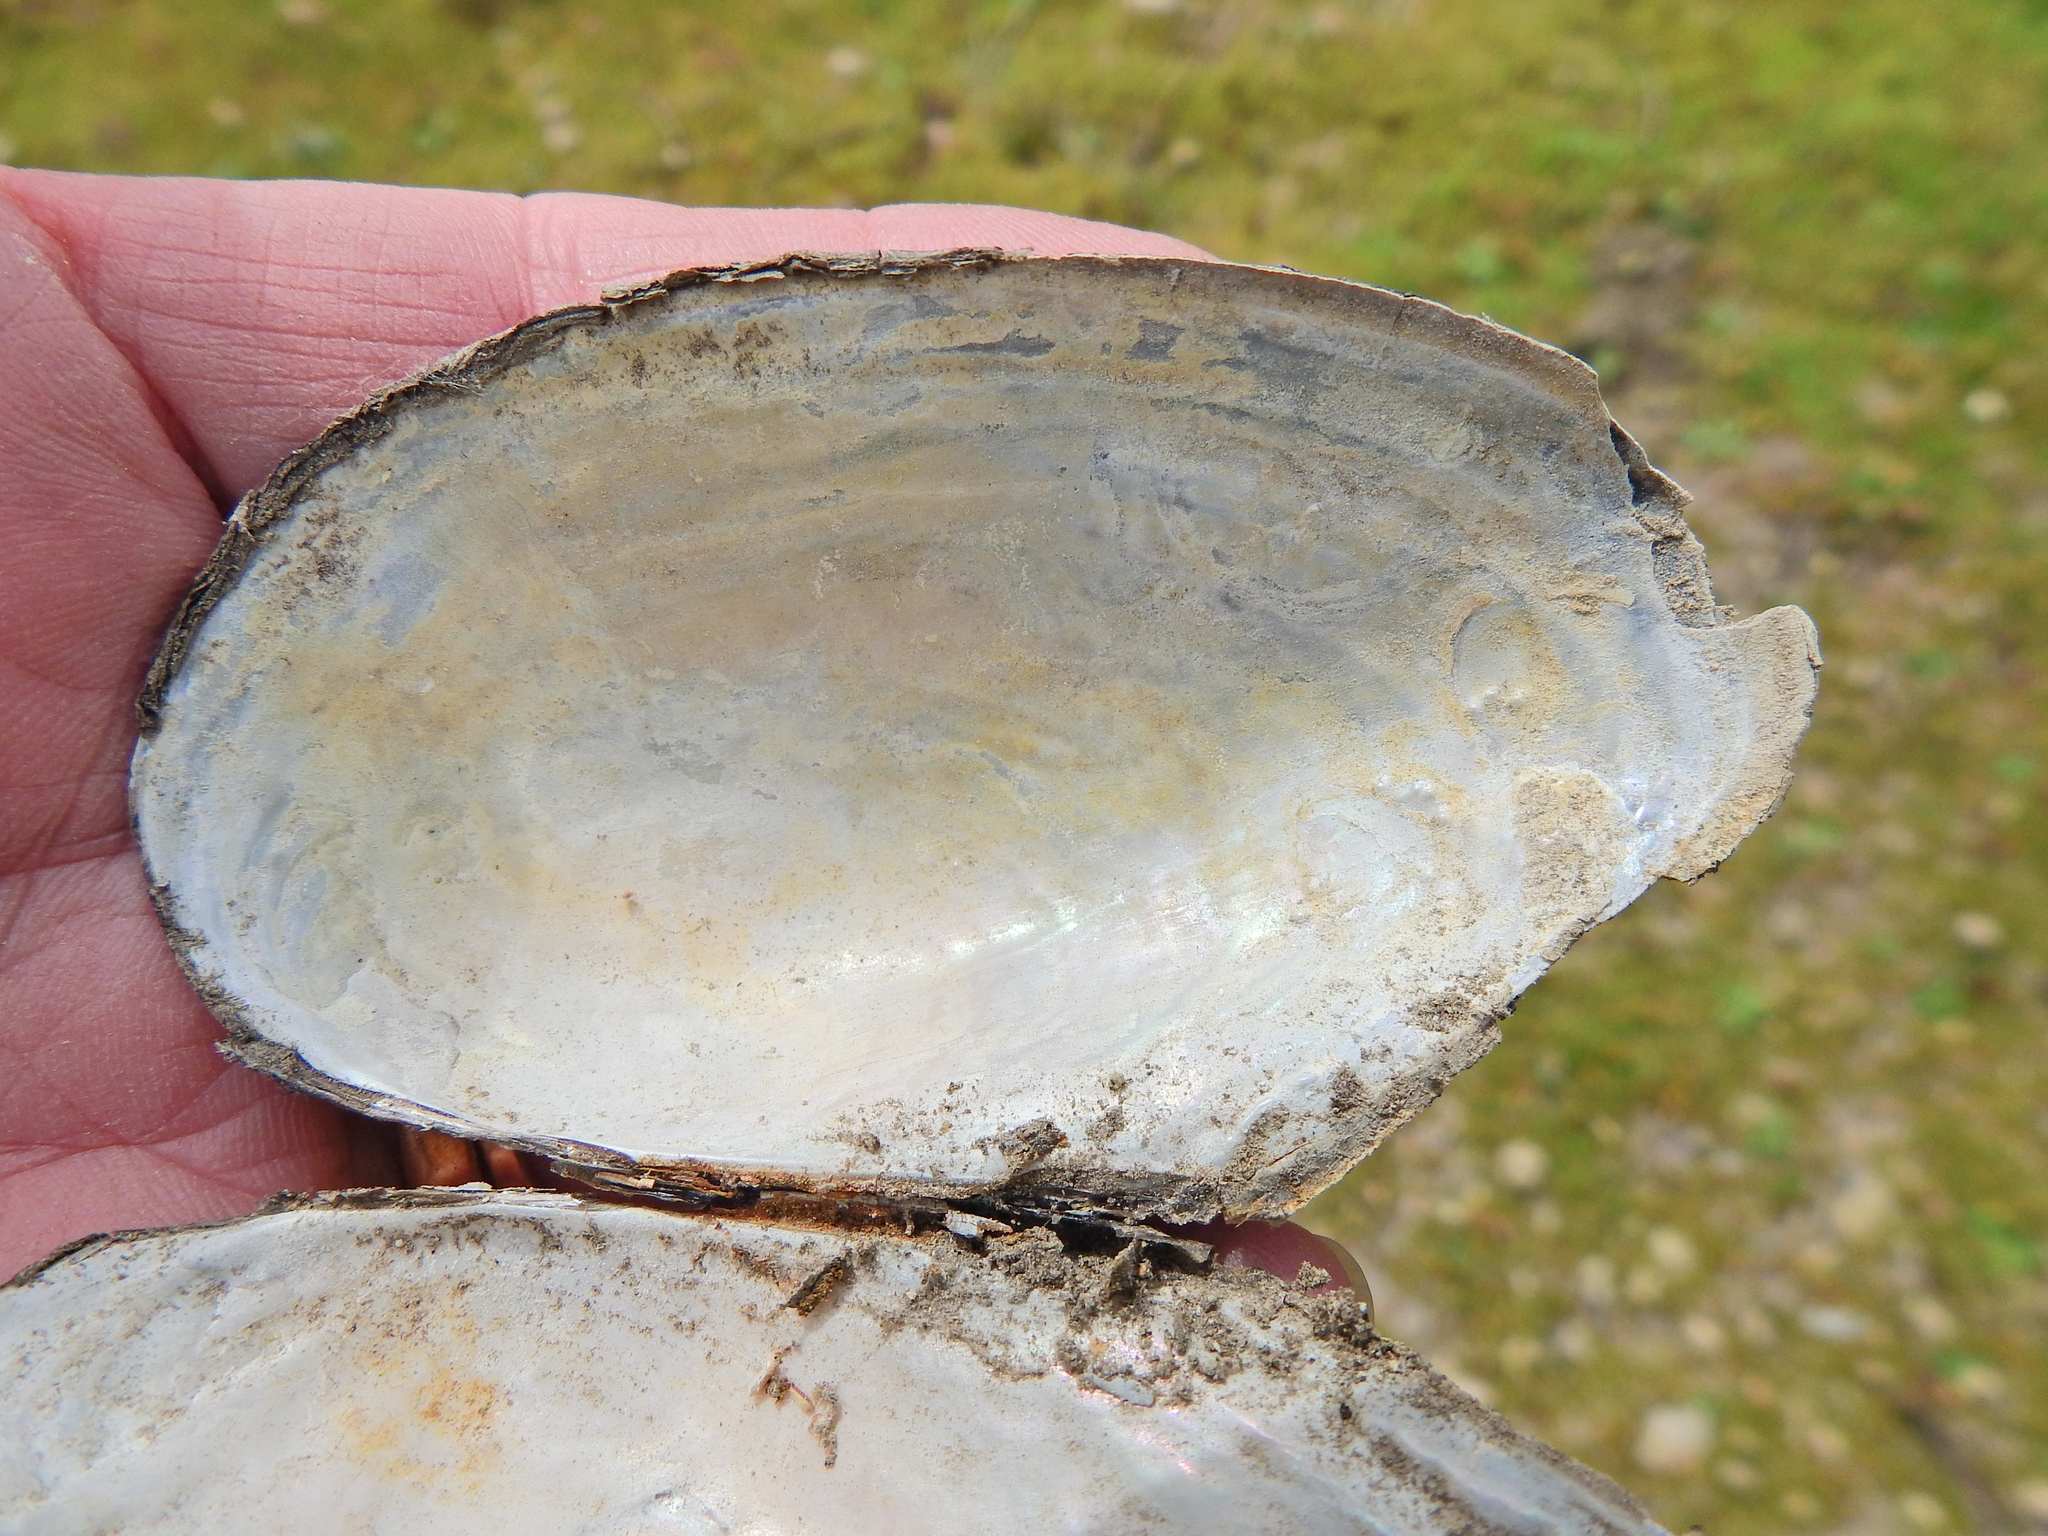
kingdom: Animalia
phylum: Mollusca
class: Bivalvia
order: Unionida
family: Unionidae
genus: Anodonta
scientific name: Anodonta anatina
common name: Duck mussel
